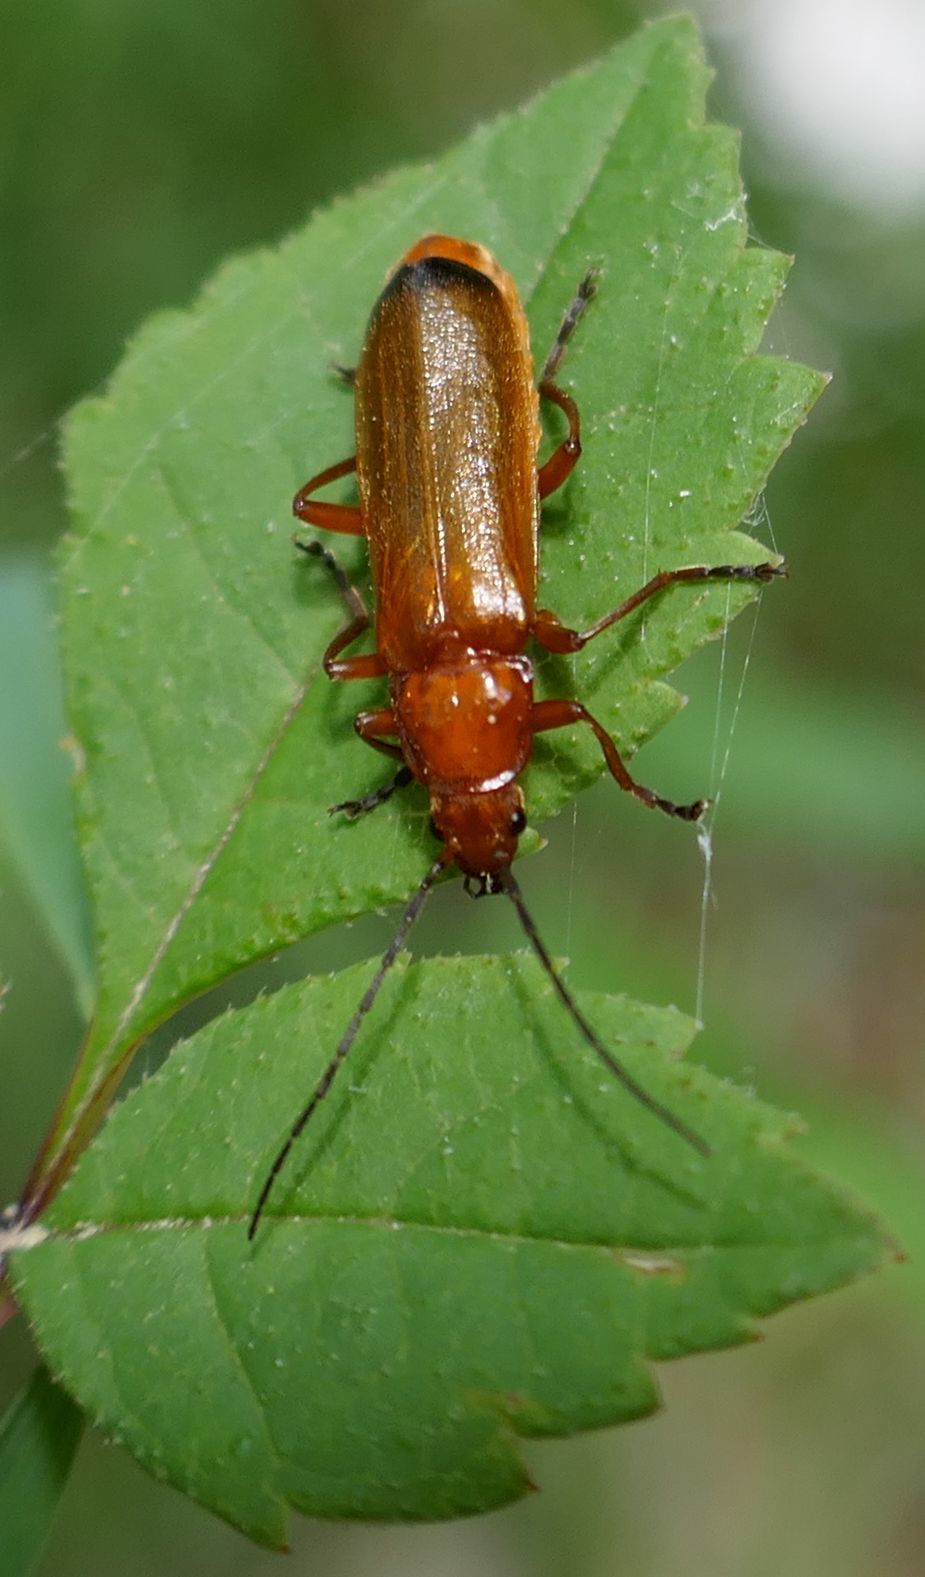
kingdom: Animalia
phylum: Arthropoda
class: Insecta
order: Coleoptera
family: Cantharidae
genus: Rhagonycha
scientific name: Rhagonycha fulva
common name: Common red soldier beetle
